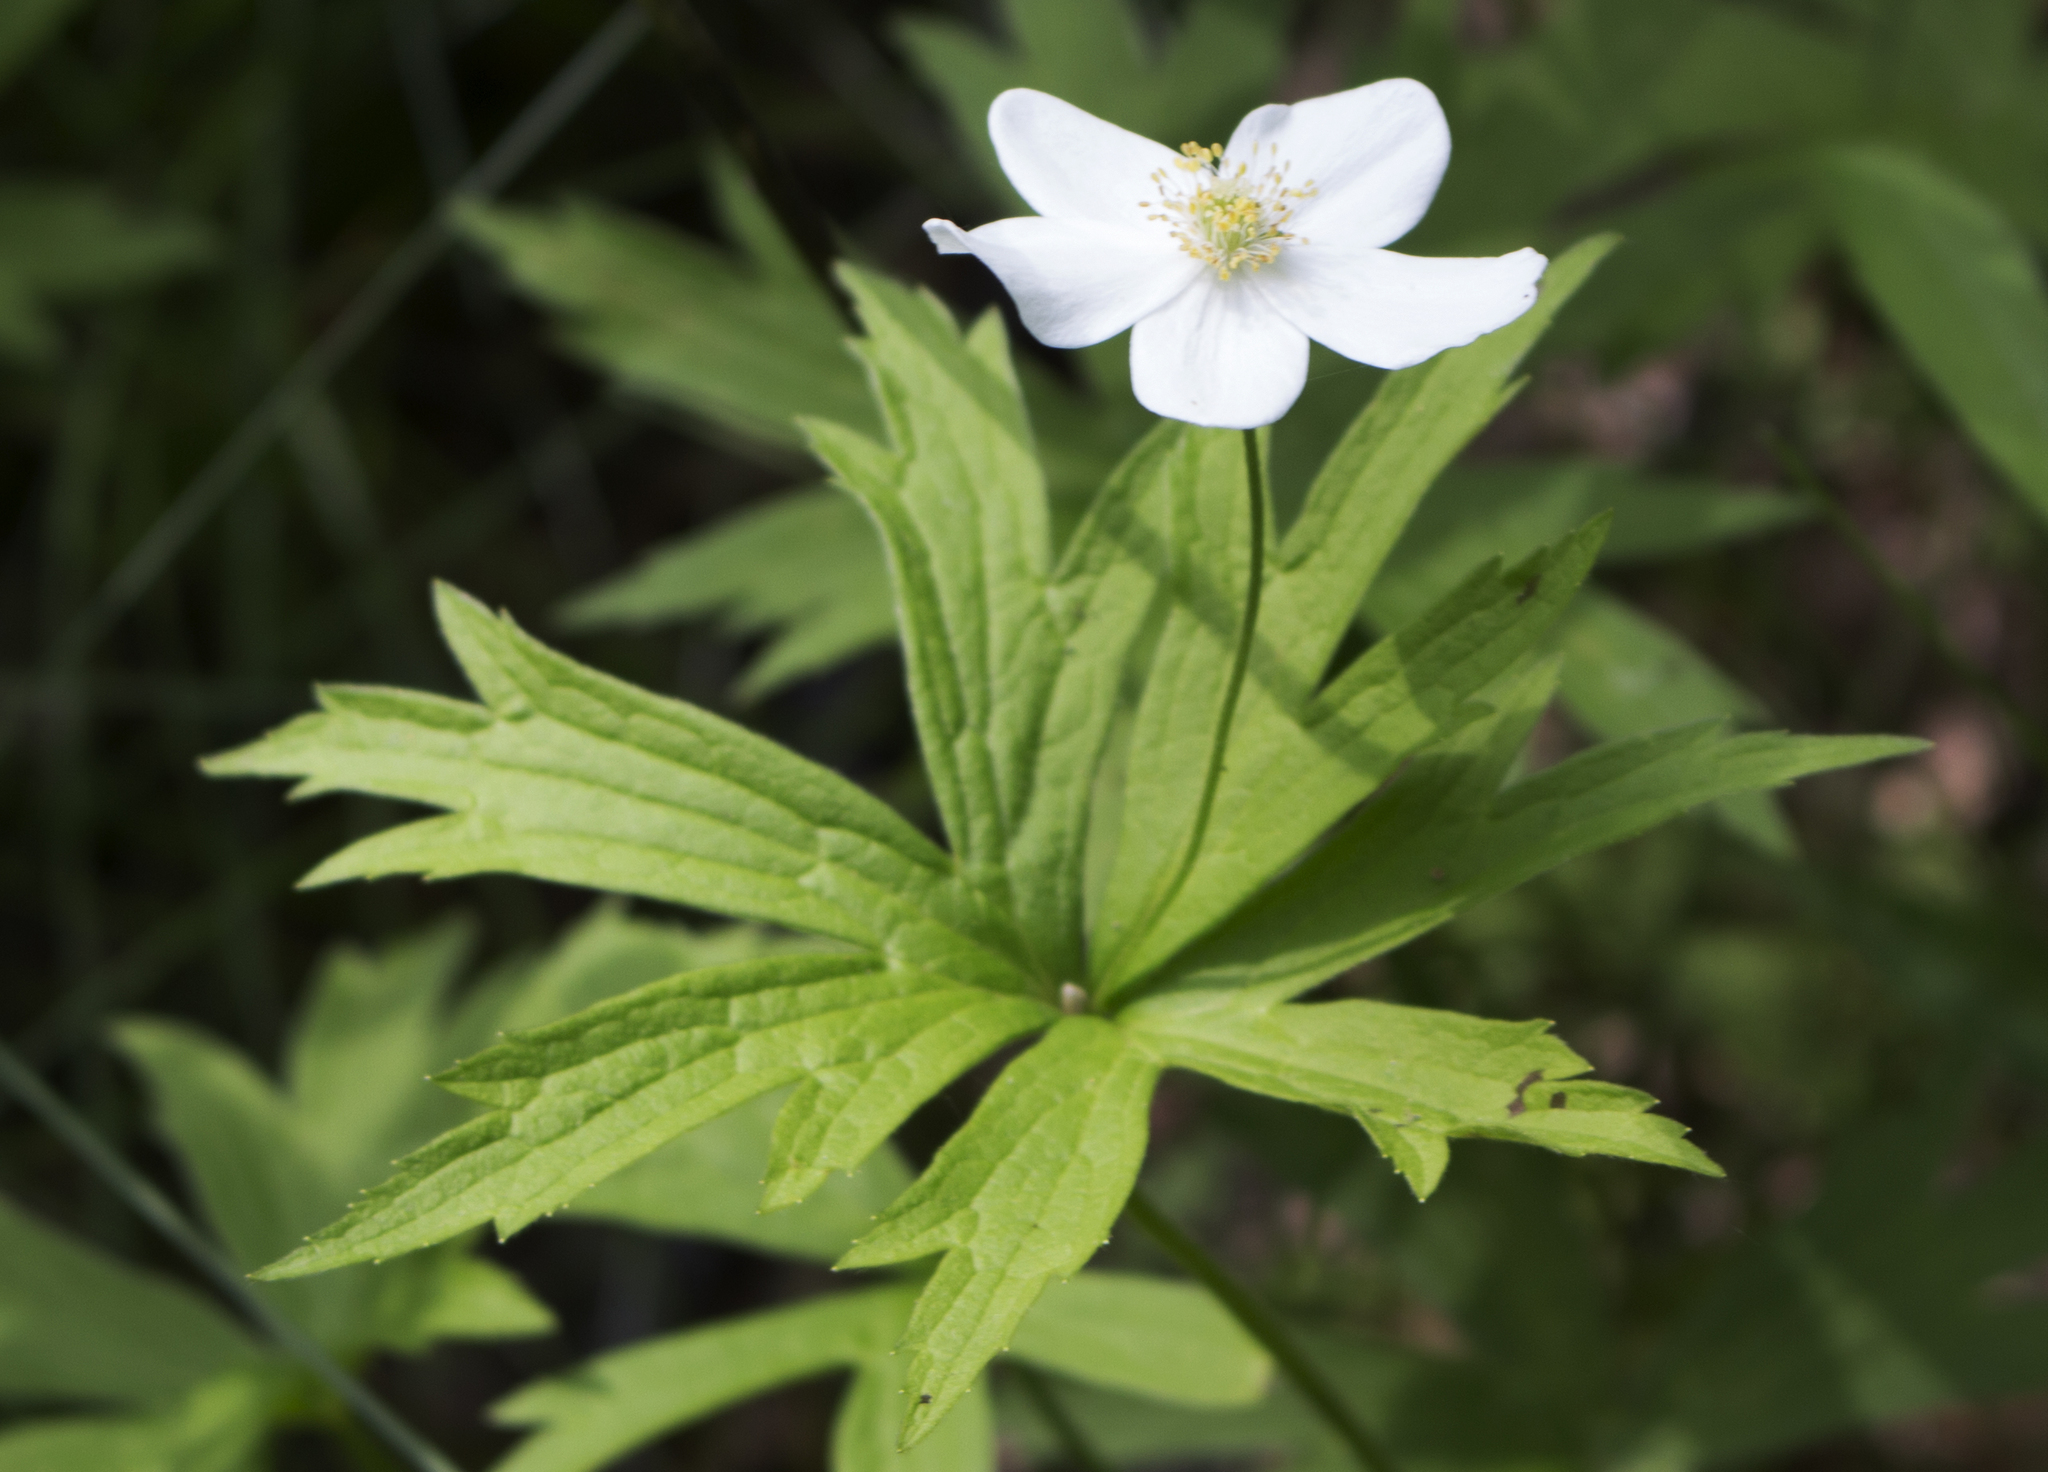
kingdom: Plantae
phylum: Tracheophyta
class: Magnoliopsida
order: Ranunculales
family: Ranunculaceae
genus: Anemonastrum
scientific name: Anemonastrum canadense
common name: Canada anemone
